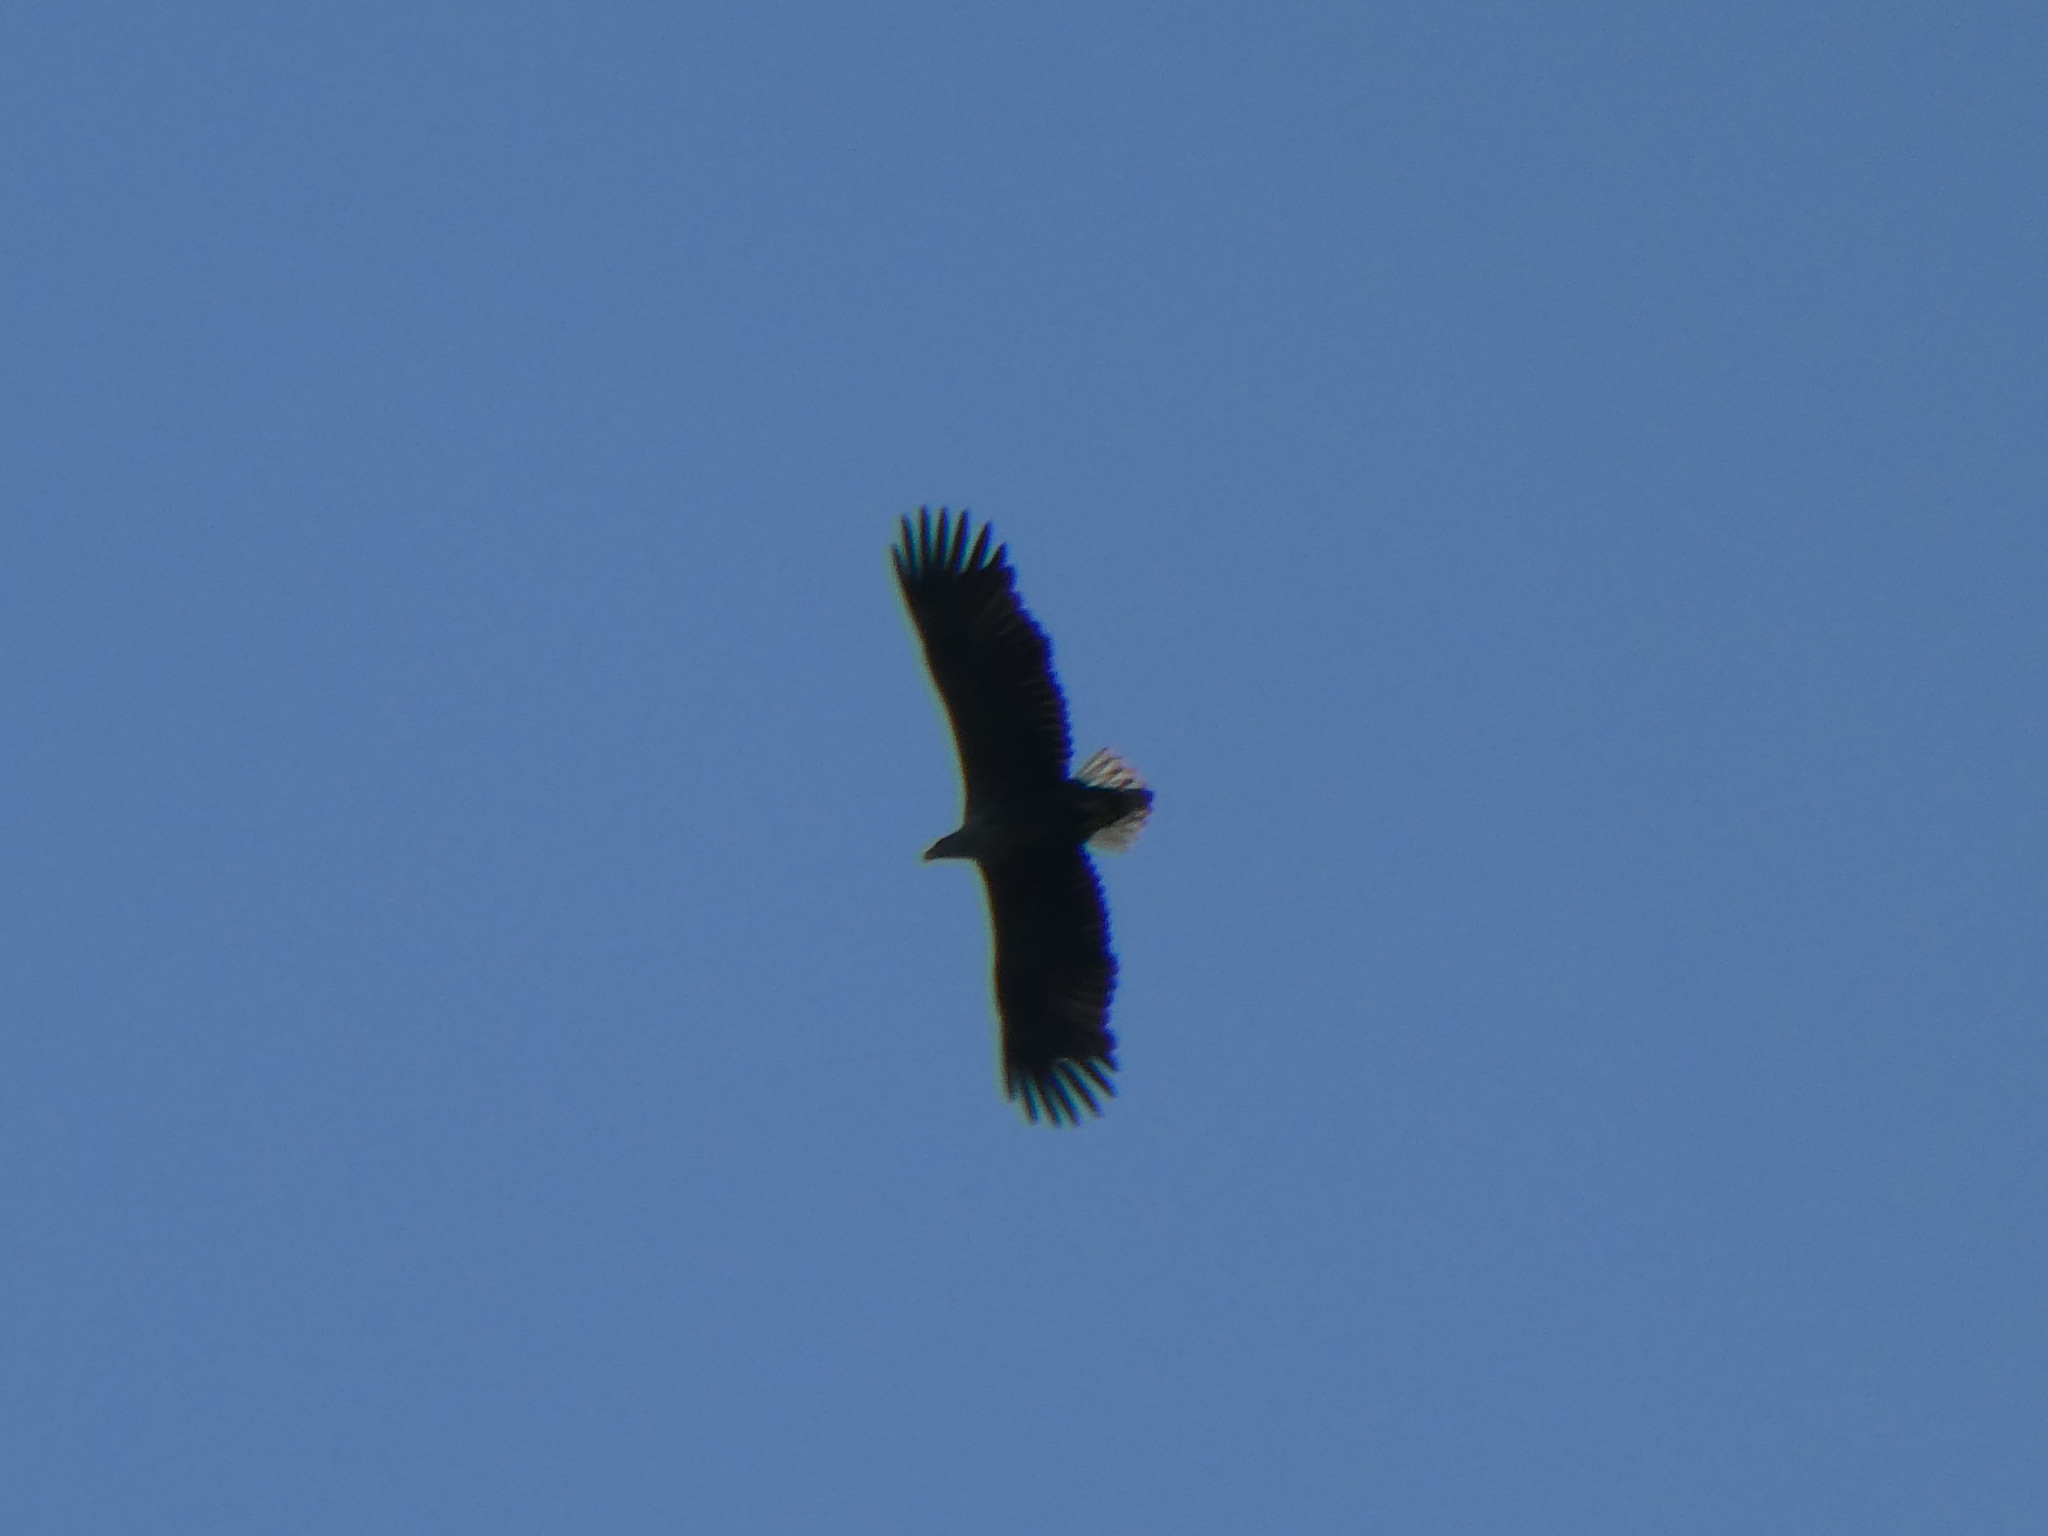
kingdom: Animalia
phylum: Chordata
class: Aves
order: Accipitriformes
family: Accipitridae
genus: Haliaeetus
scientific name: Haliaeetus albicilla
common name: White-tailed eagle
